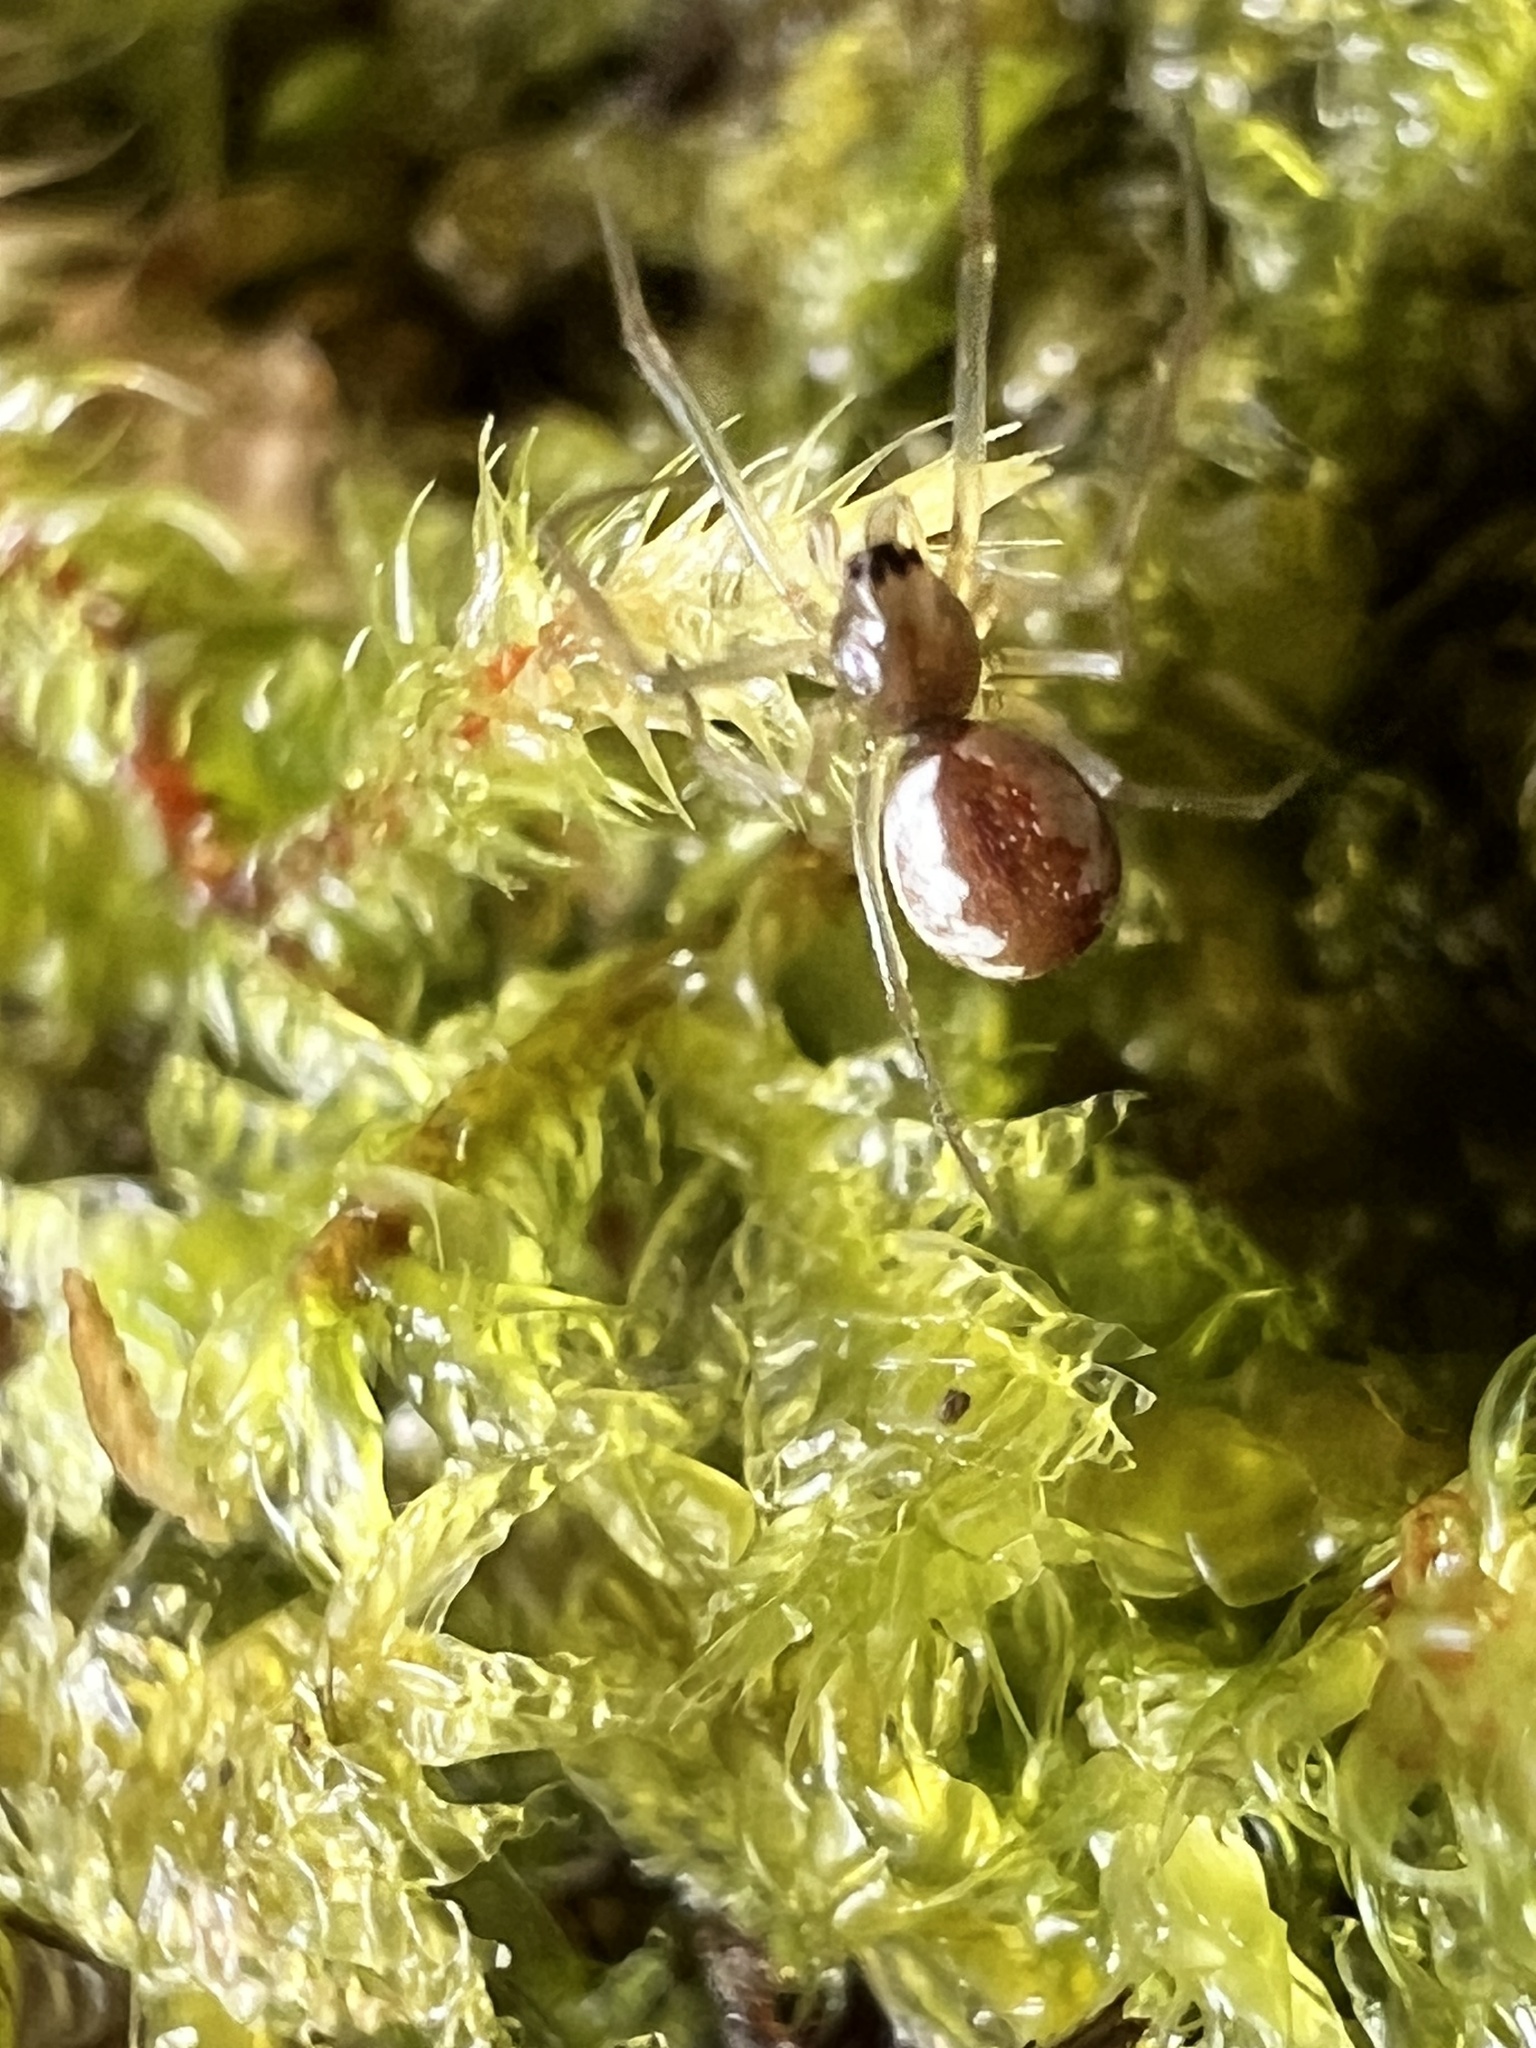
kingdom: Animalia
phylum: Arthropoda
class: Arachnida
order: Araneae
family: Linyphiidae
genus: Microlinyphia
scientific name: Microlinyphia dana
